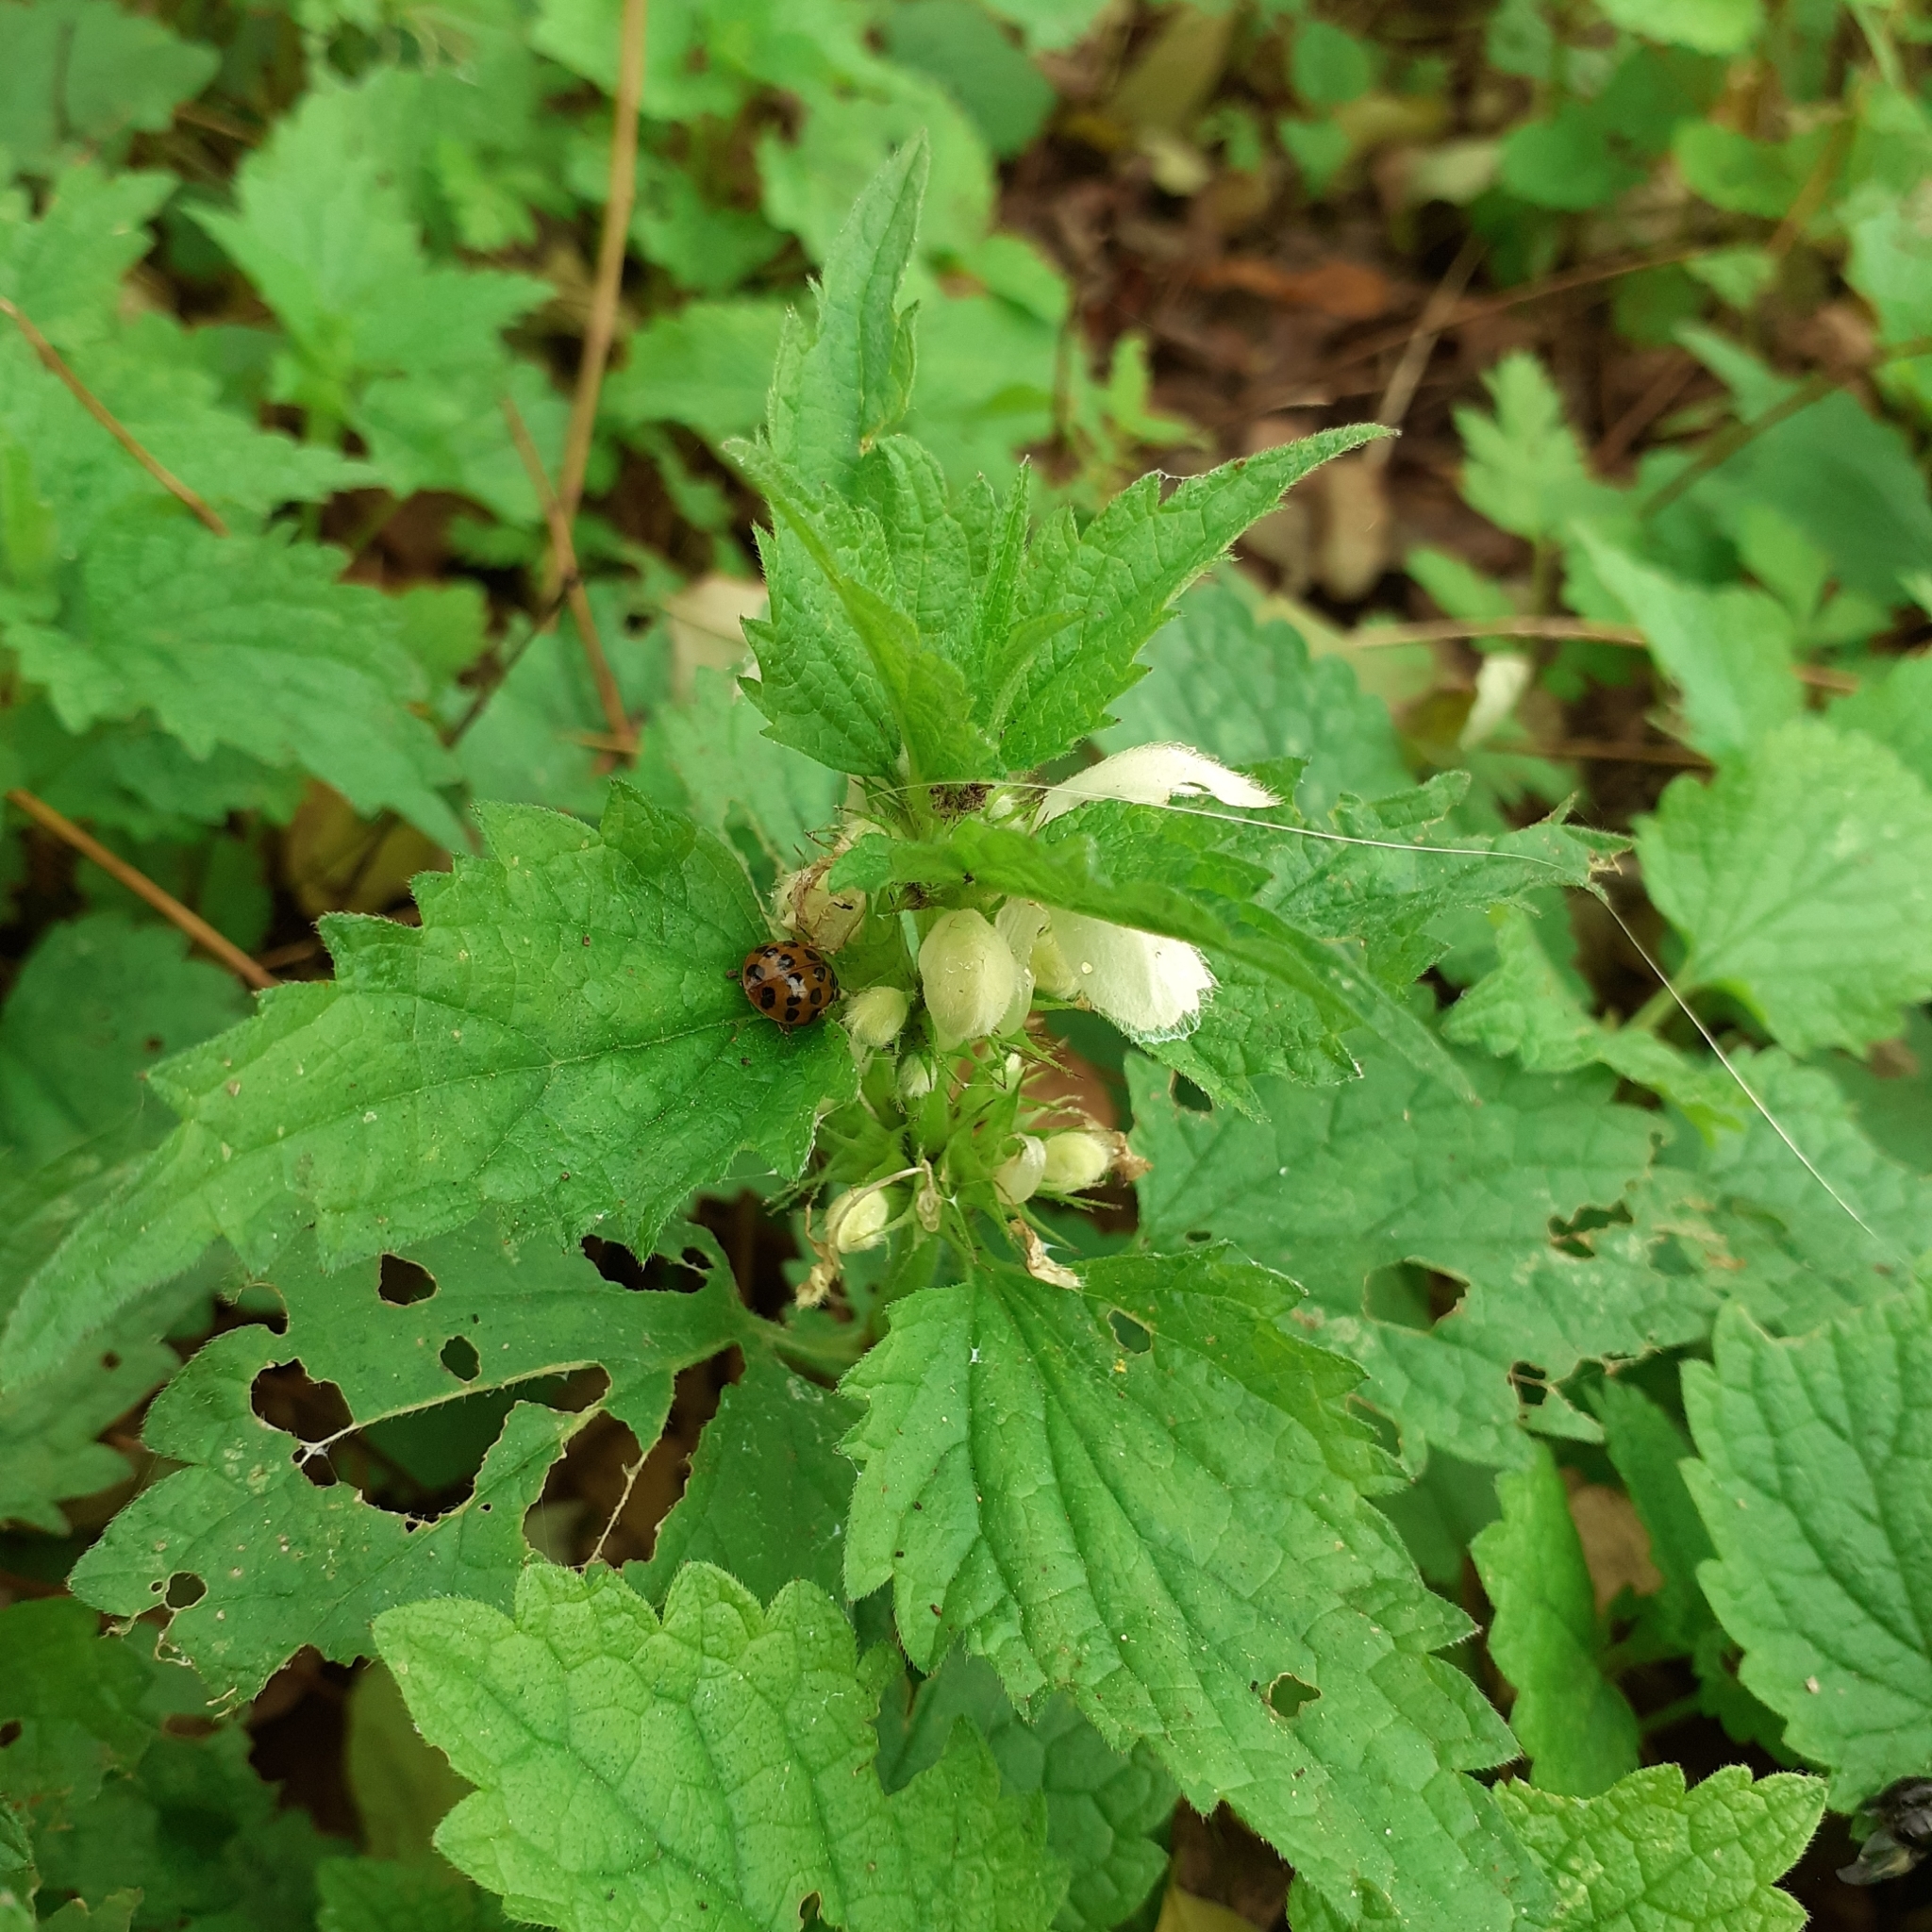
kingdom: Plantae
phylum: Tracheophyta
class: Magnoliopsida
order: Lamiales
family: Lamiaceae
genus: Lamium
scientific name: Lamium album
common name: White dead-nettle
